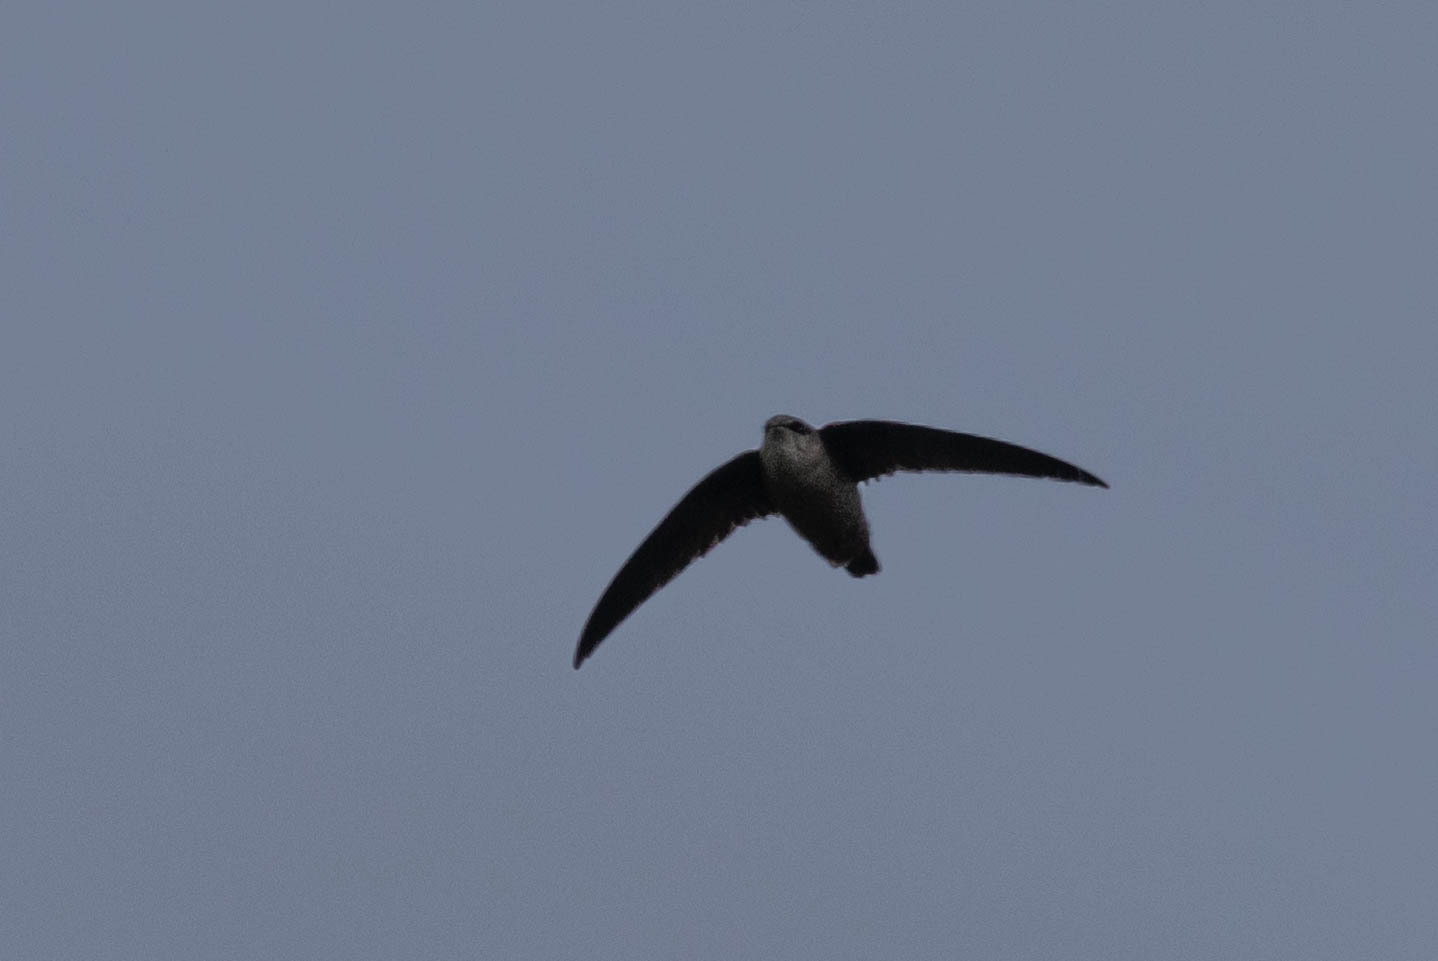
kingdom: Animalia
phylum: Chordata
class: Aves
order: Apodiformes
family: Apodidae
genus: Chaetura
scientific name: Chaetura vauxi
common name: Vaux's swift
